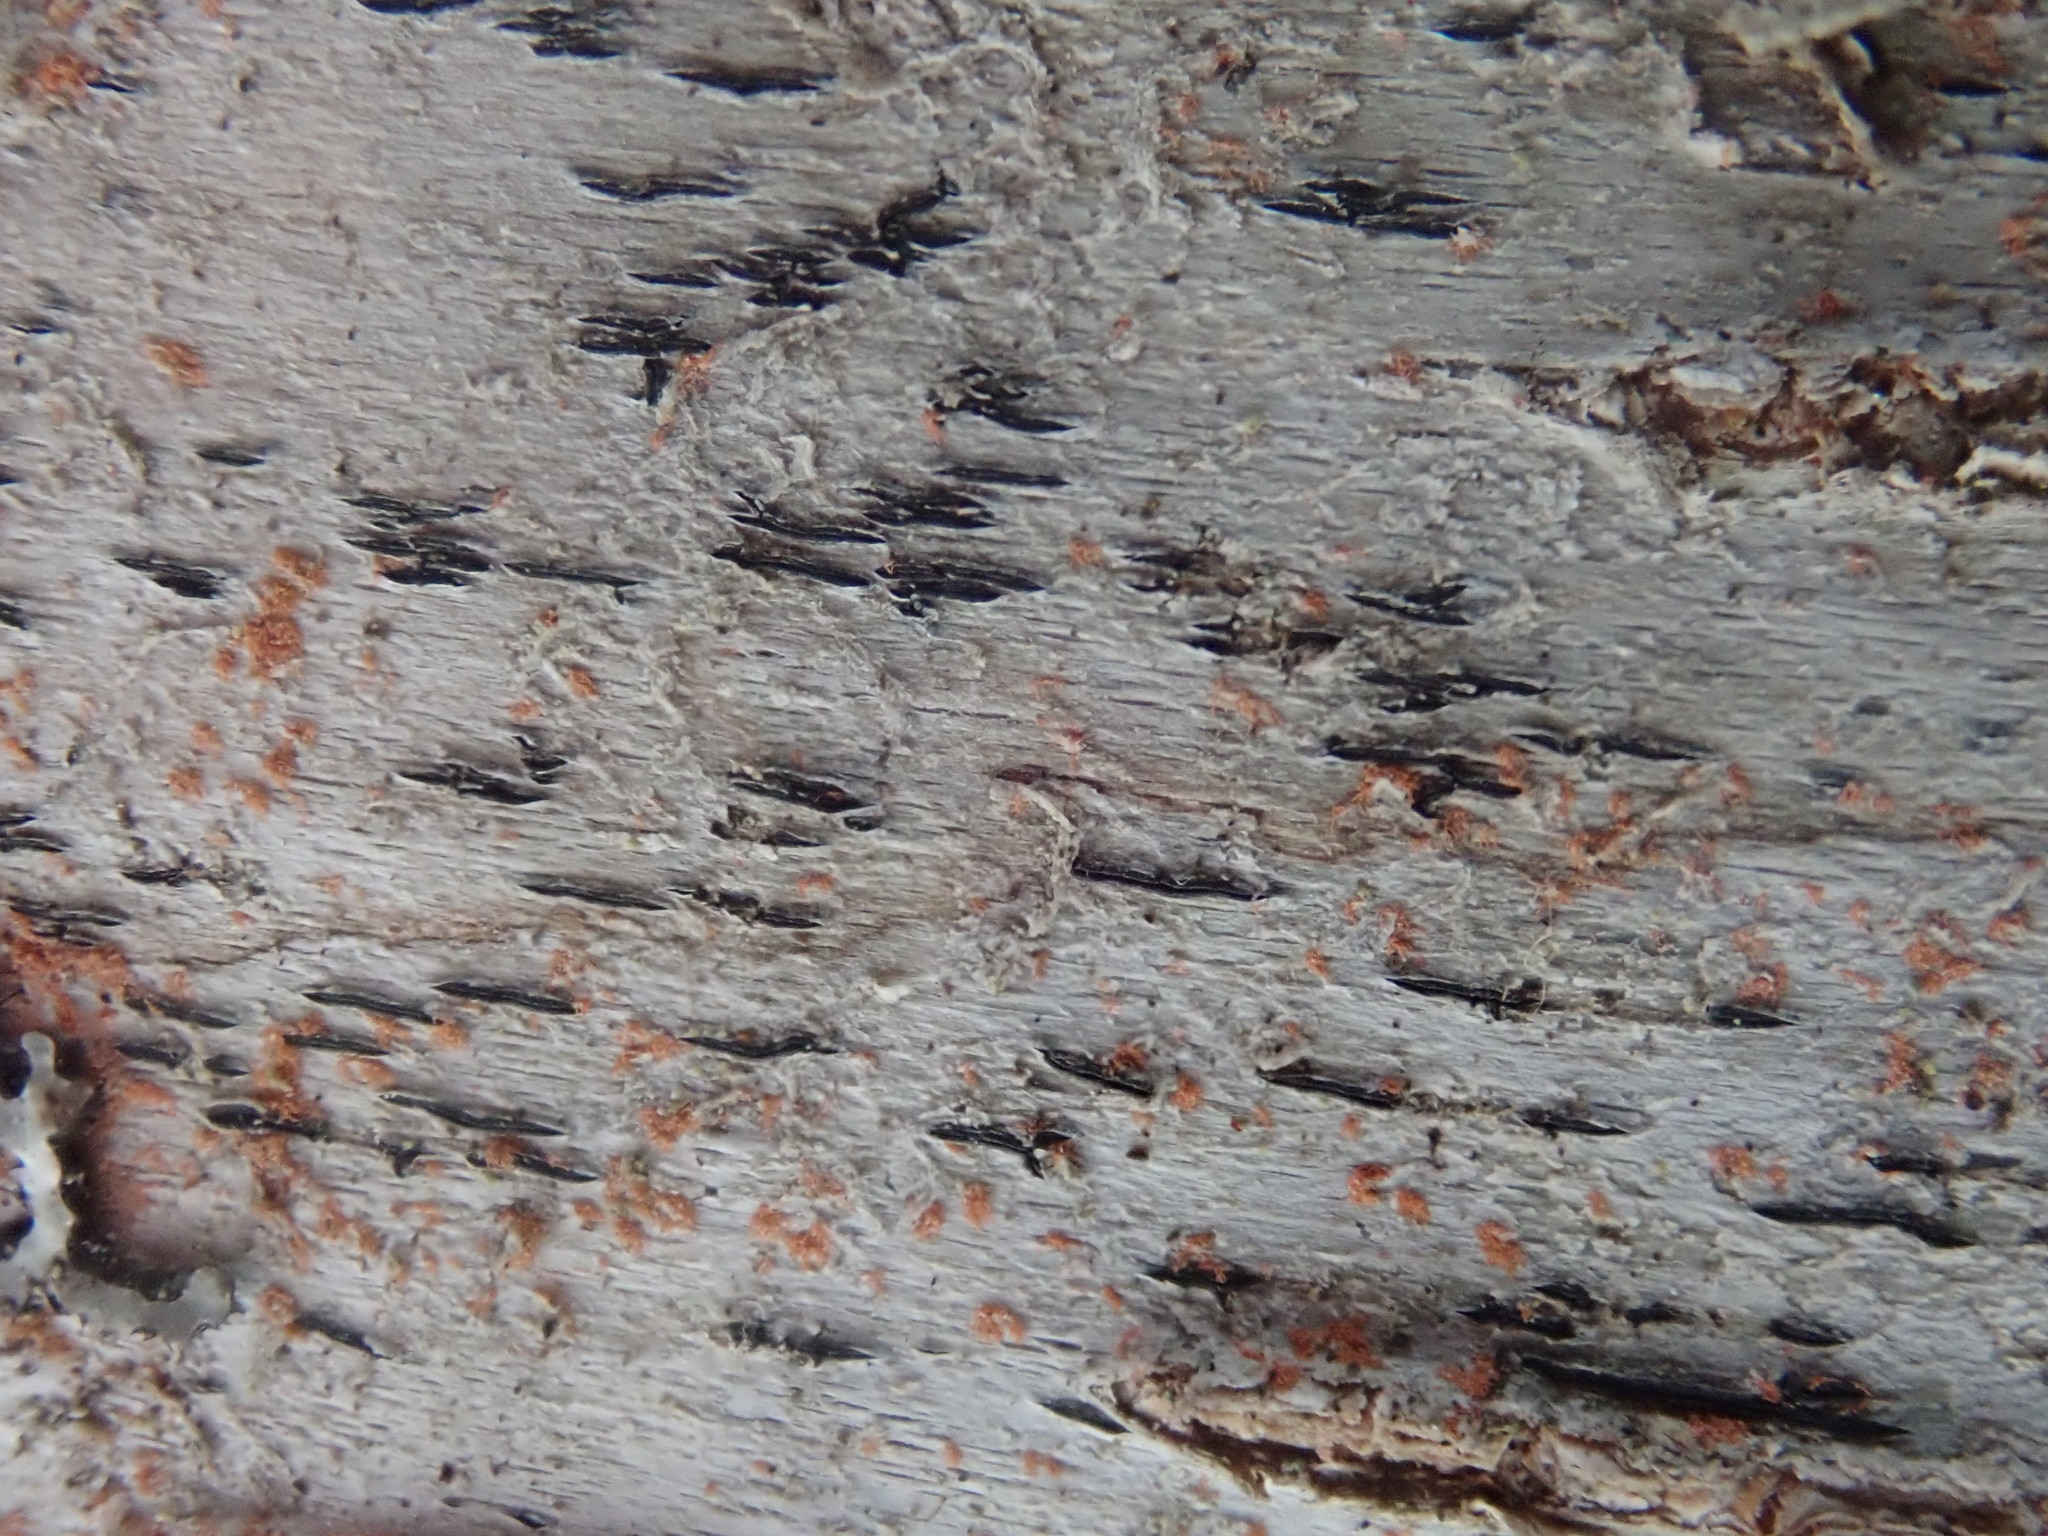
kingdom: Fungi
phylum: Ascomycota
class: Lecanoromycetes
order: Ostropales
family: Graphidaceae
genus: Graphis
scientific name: Graphis scripta
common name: Script lichen
